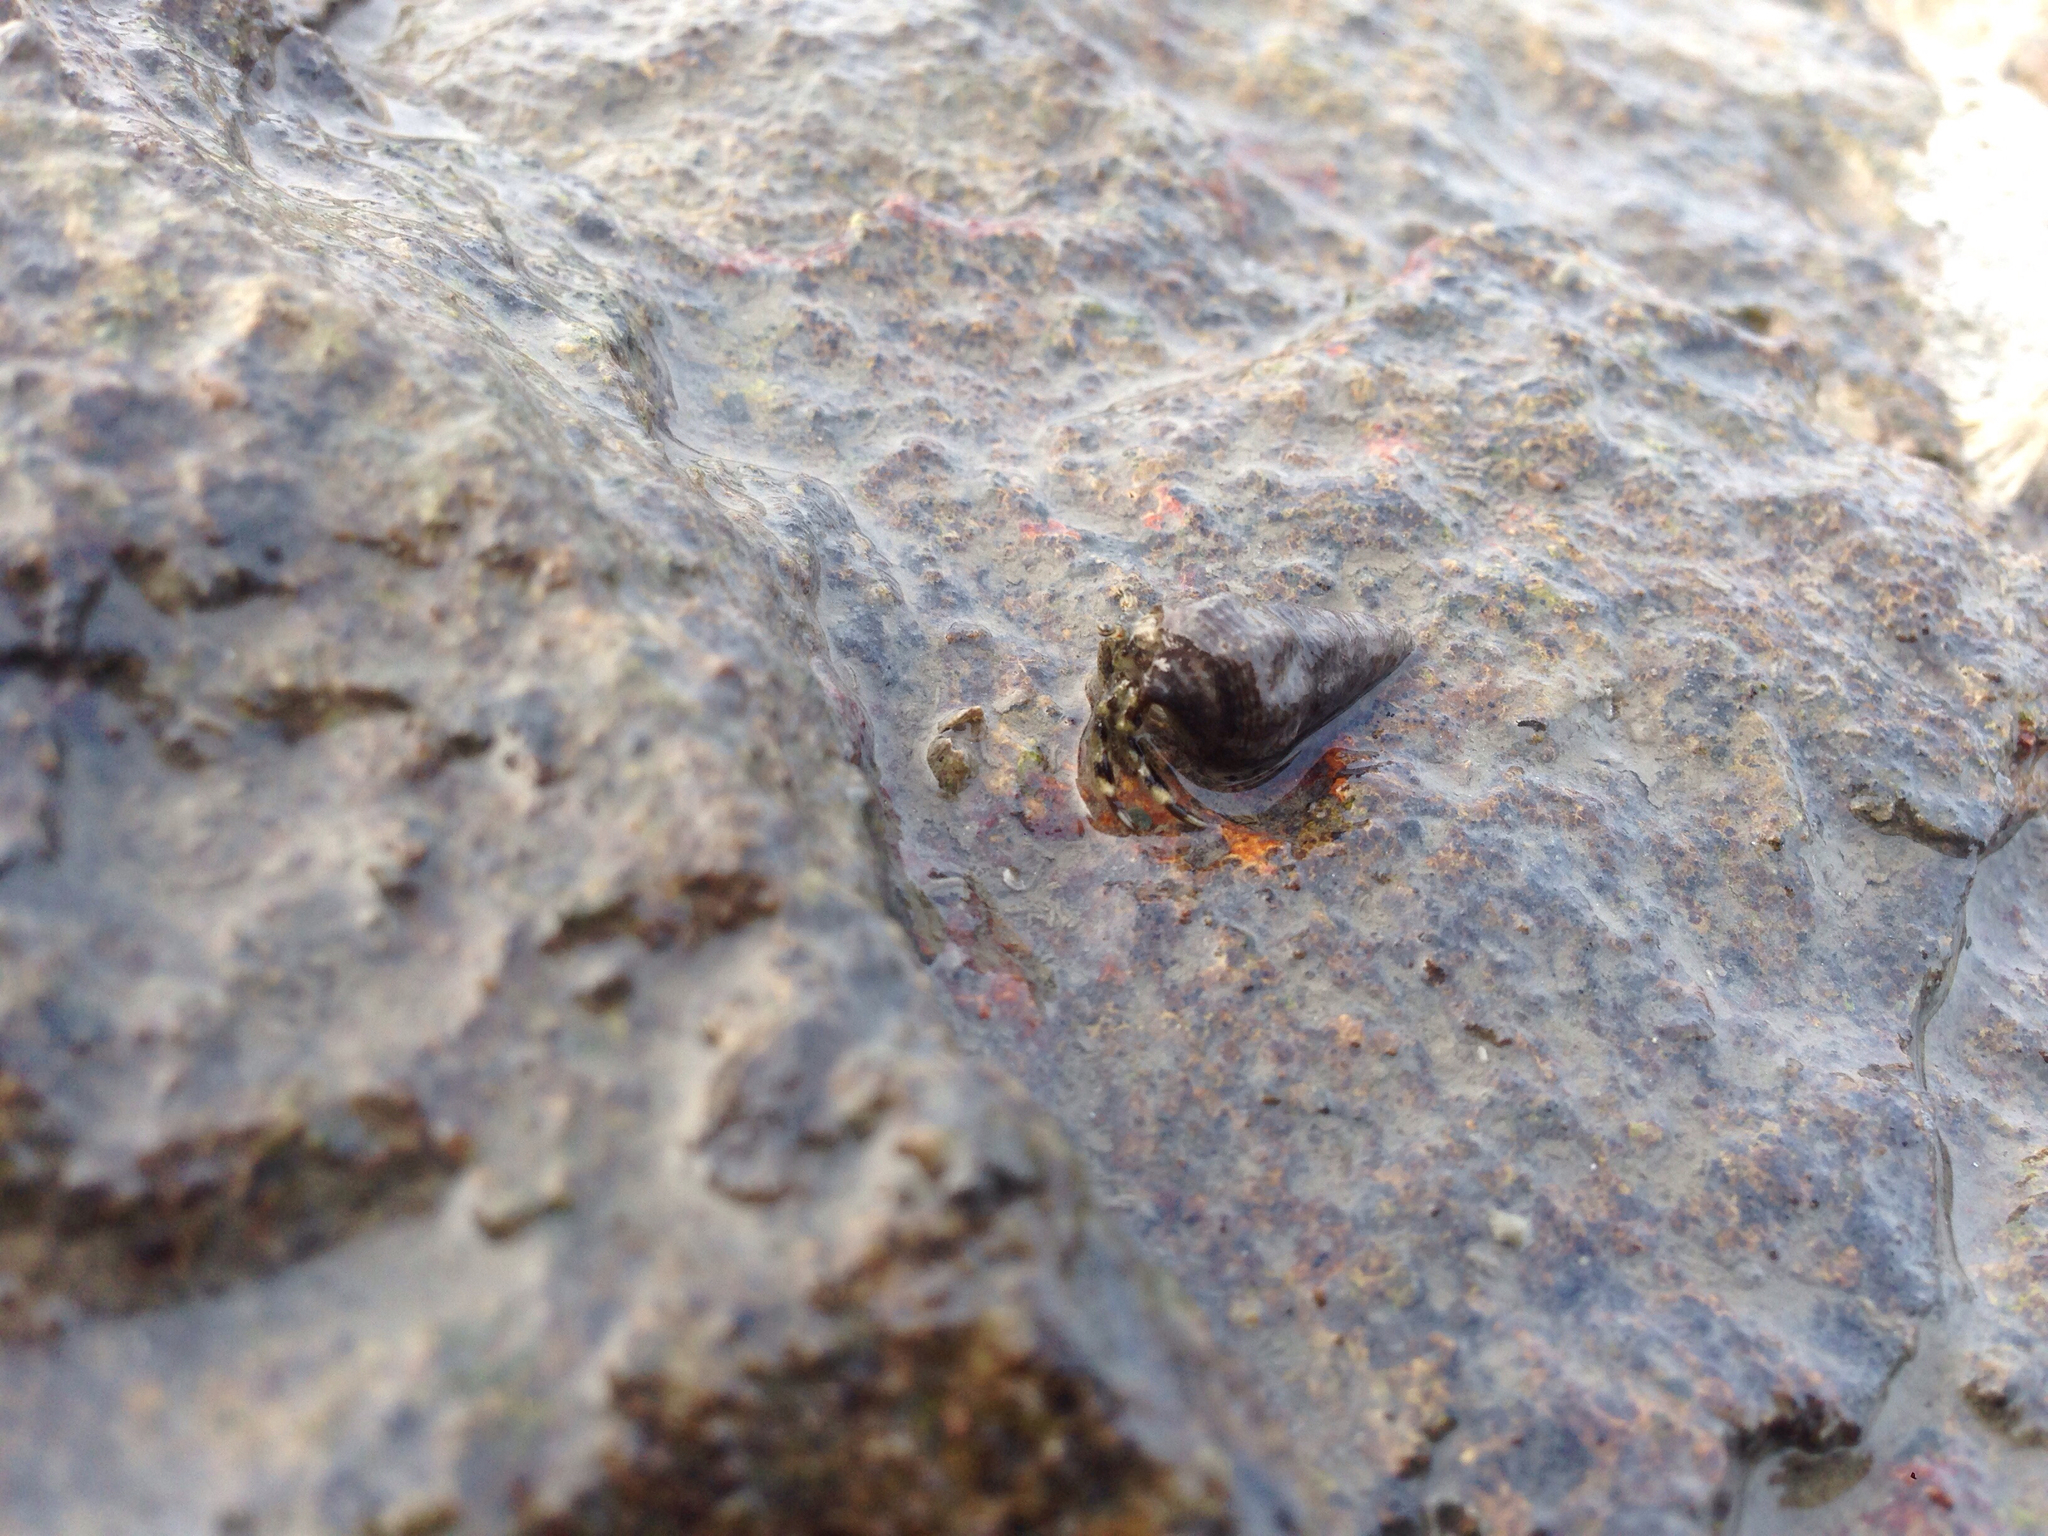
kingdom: Animalia
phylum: Arthropoda
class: Malacostraca
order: Decapoda
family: Paguridae
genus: Pagurus
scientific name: Pagurus minutus
